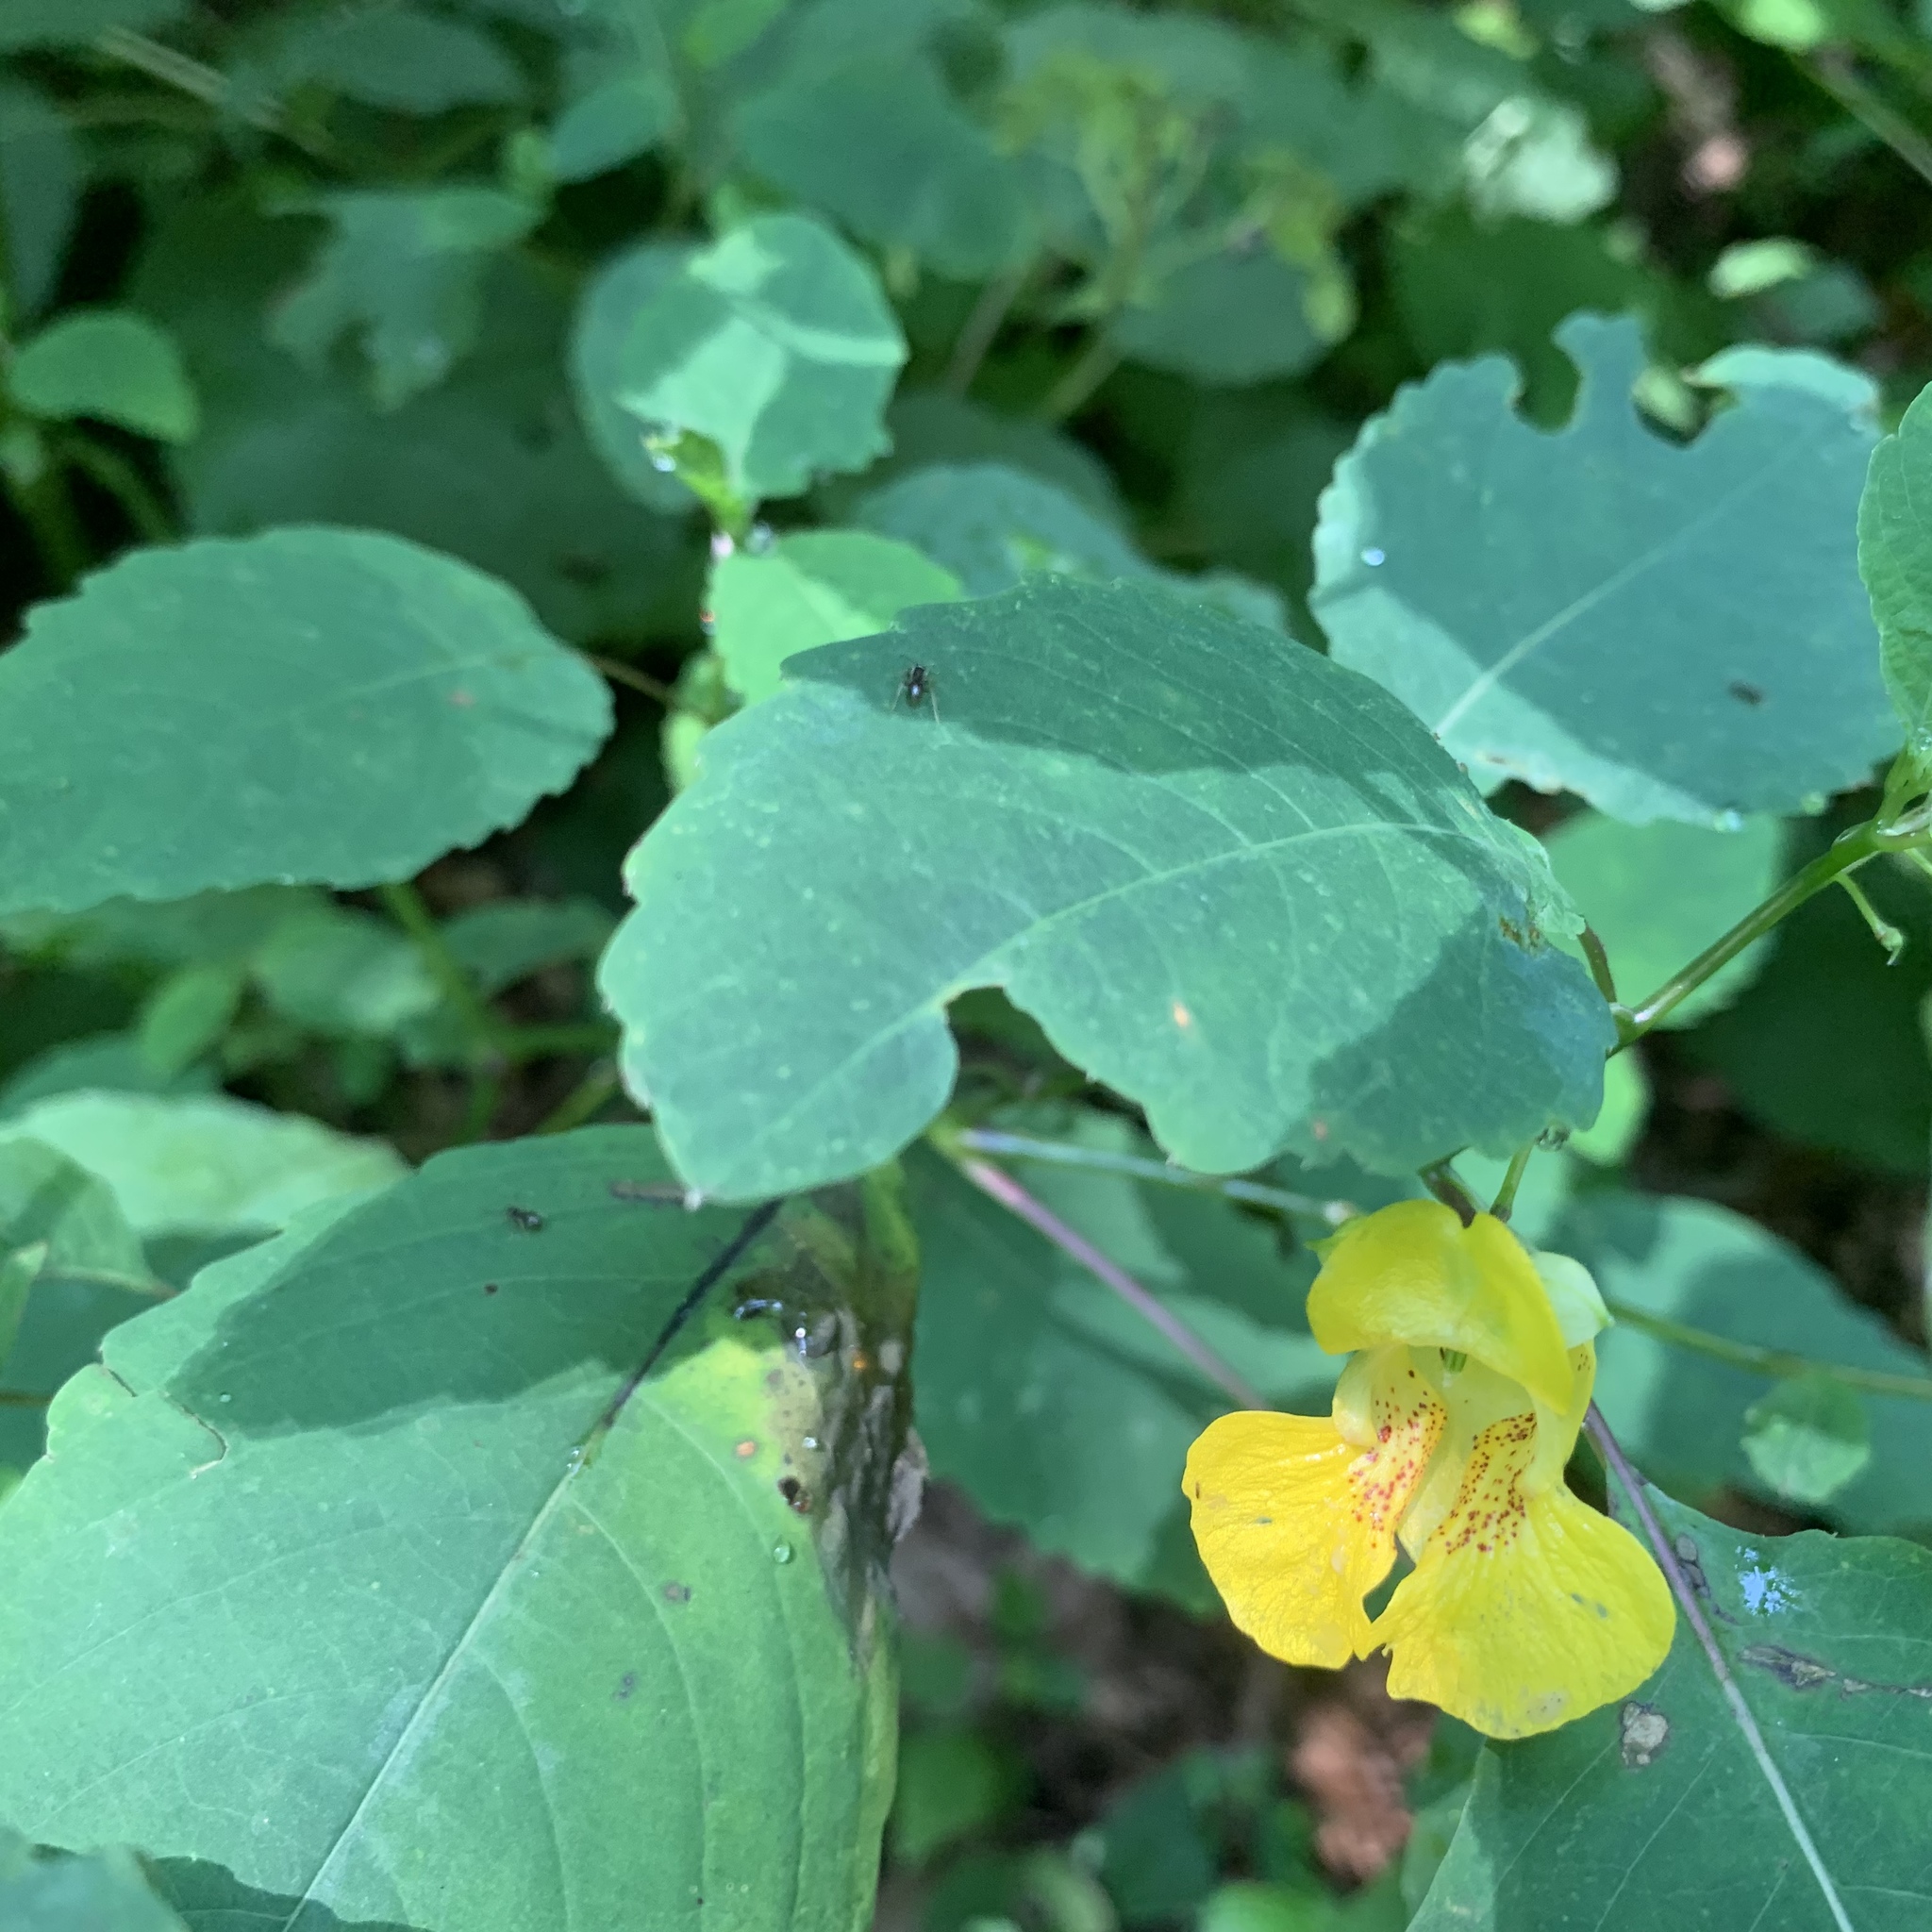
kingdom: Plantae
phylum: Tracheophyta
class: Magnoliopsida
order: Ericales
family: Balsaminaceae
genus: Impatiens
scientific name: Impatiens pallida
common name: Pale snapweed
